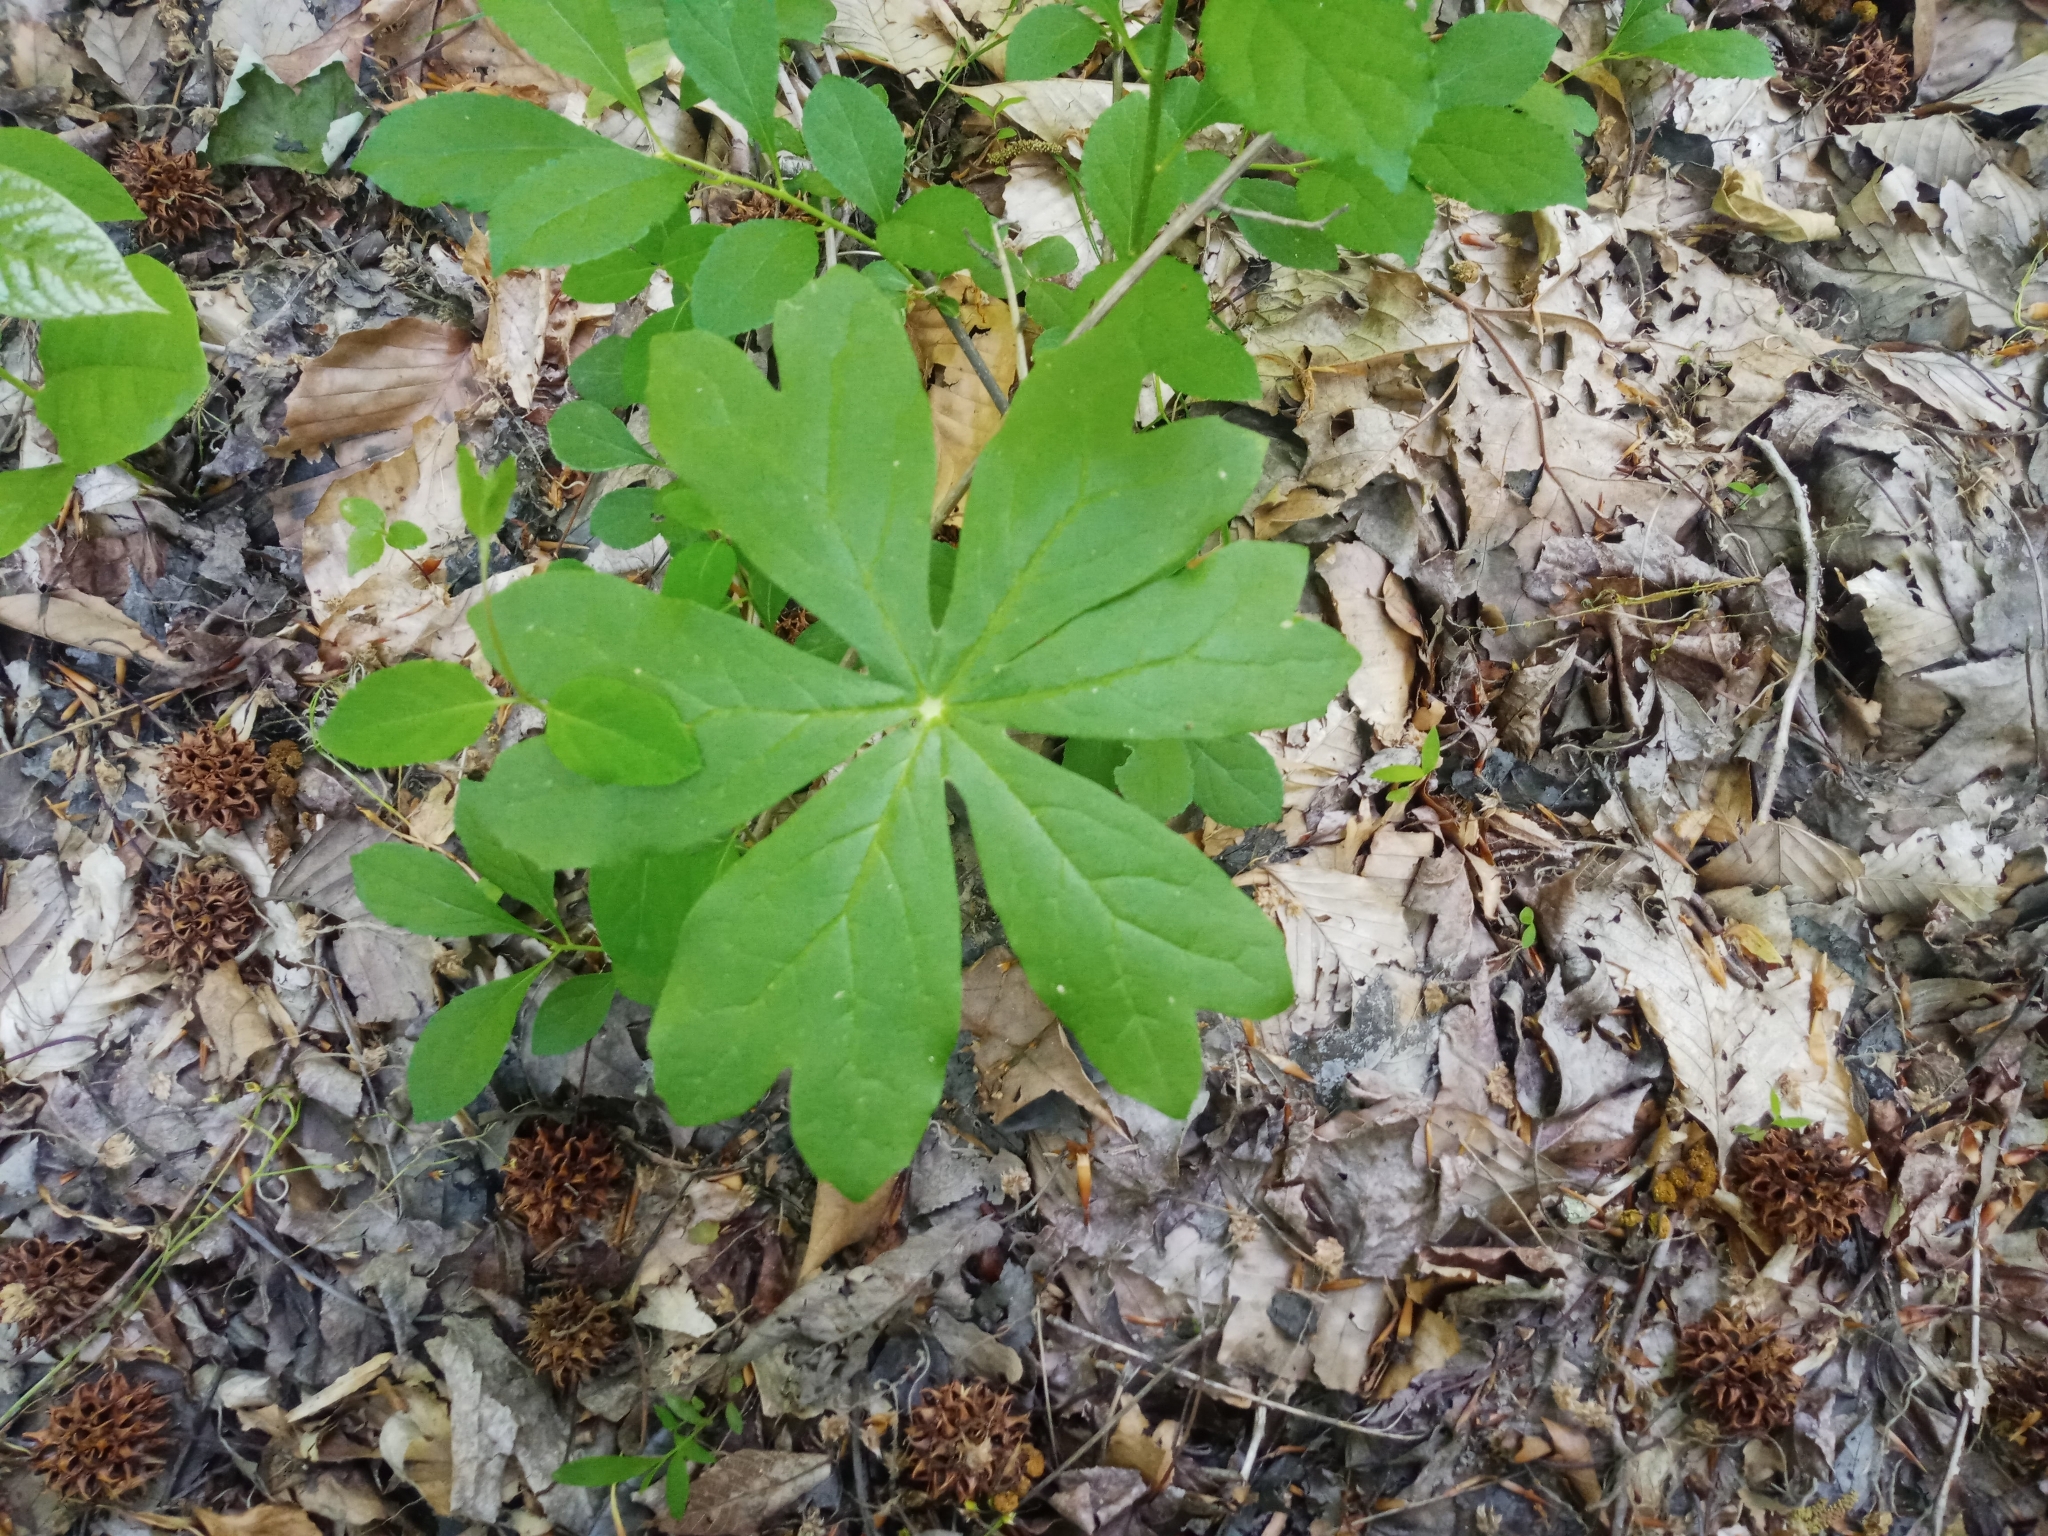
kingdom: Plantae
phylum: Tracheophyta
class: Magnoliopsida
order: Ranunculales
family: Berberidaceae
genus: Podophyllum
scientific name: Podophyllum peltatum
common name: Wild mandrake
